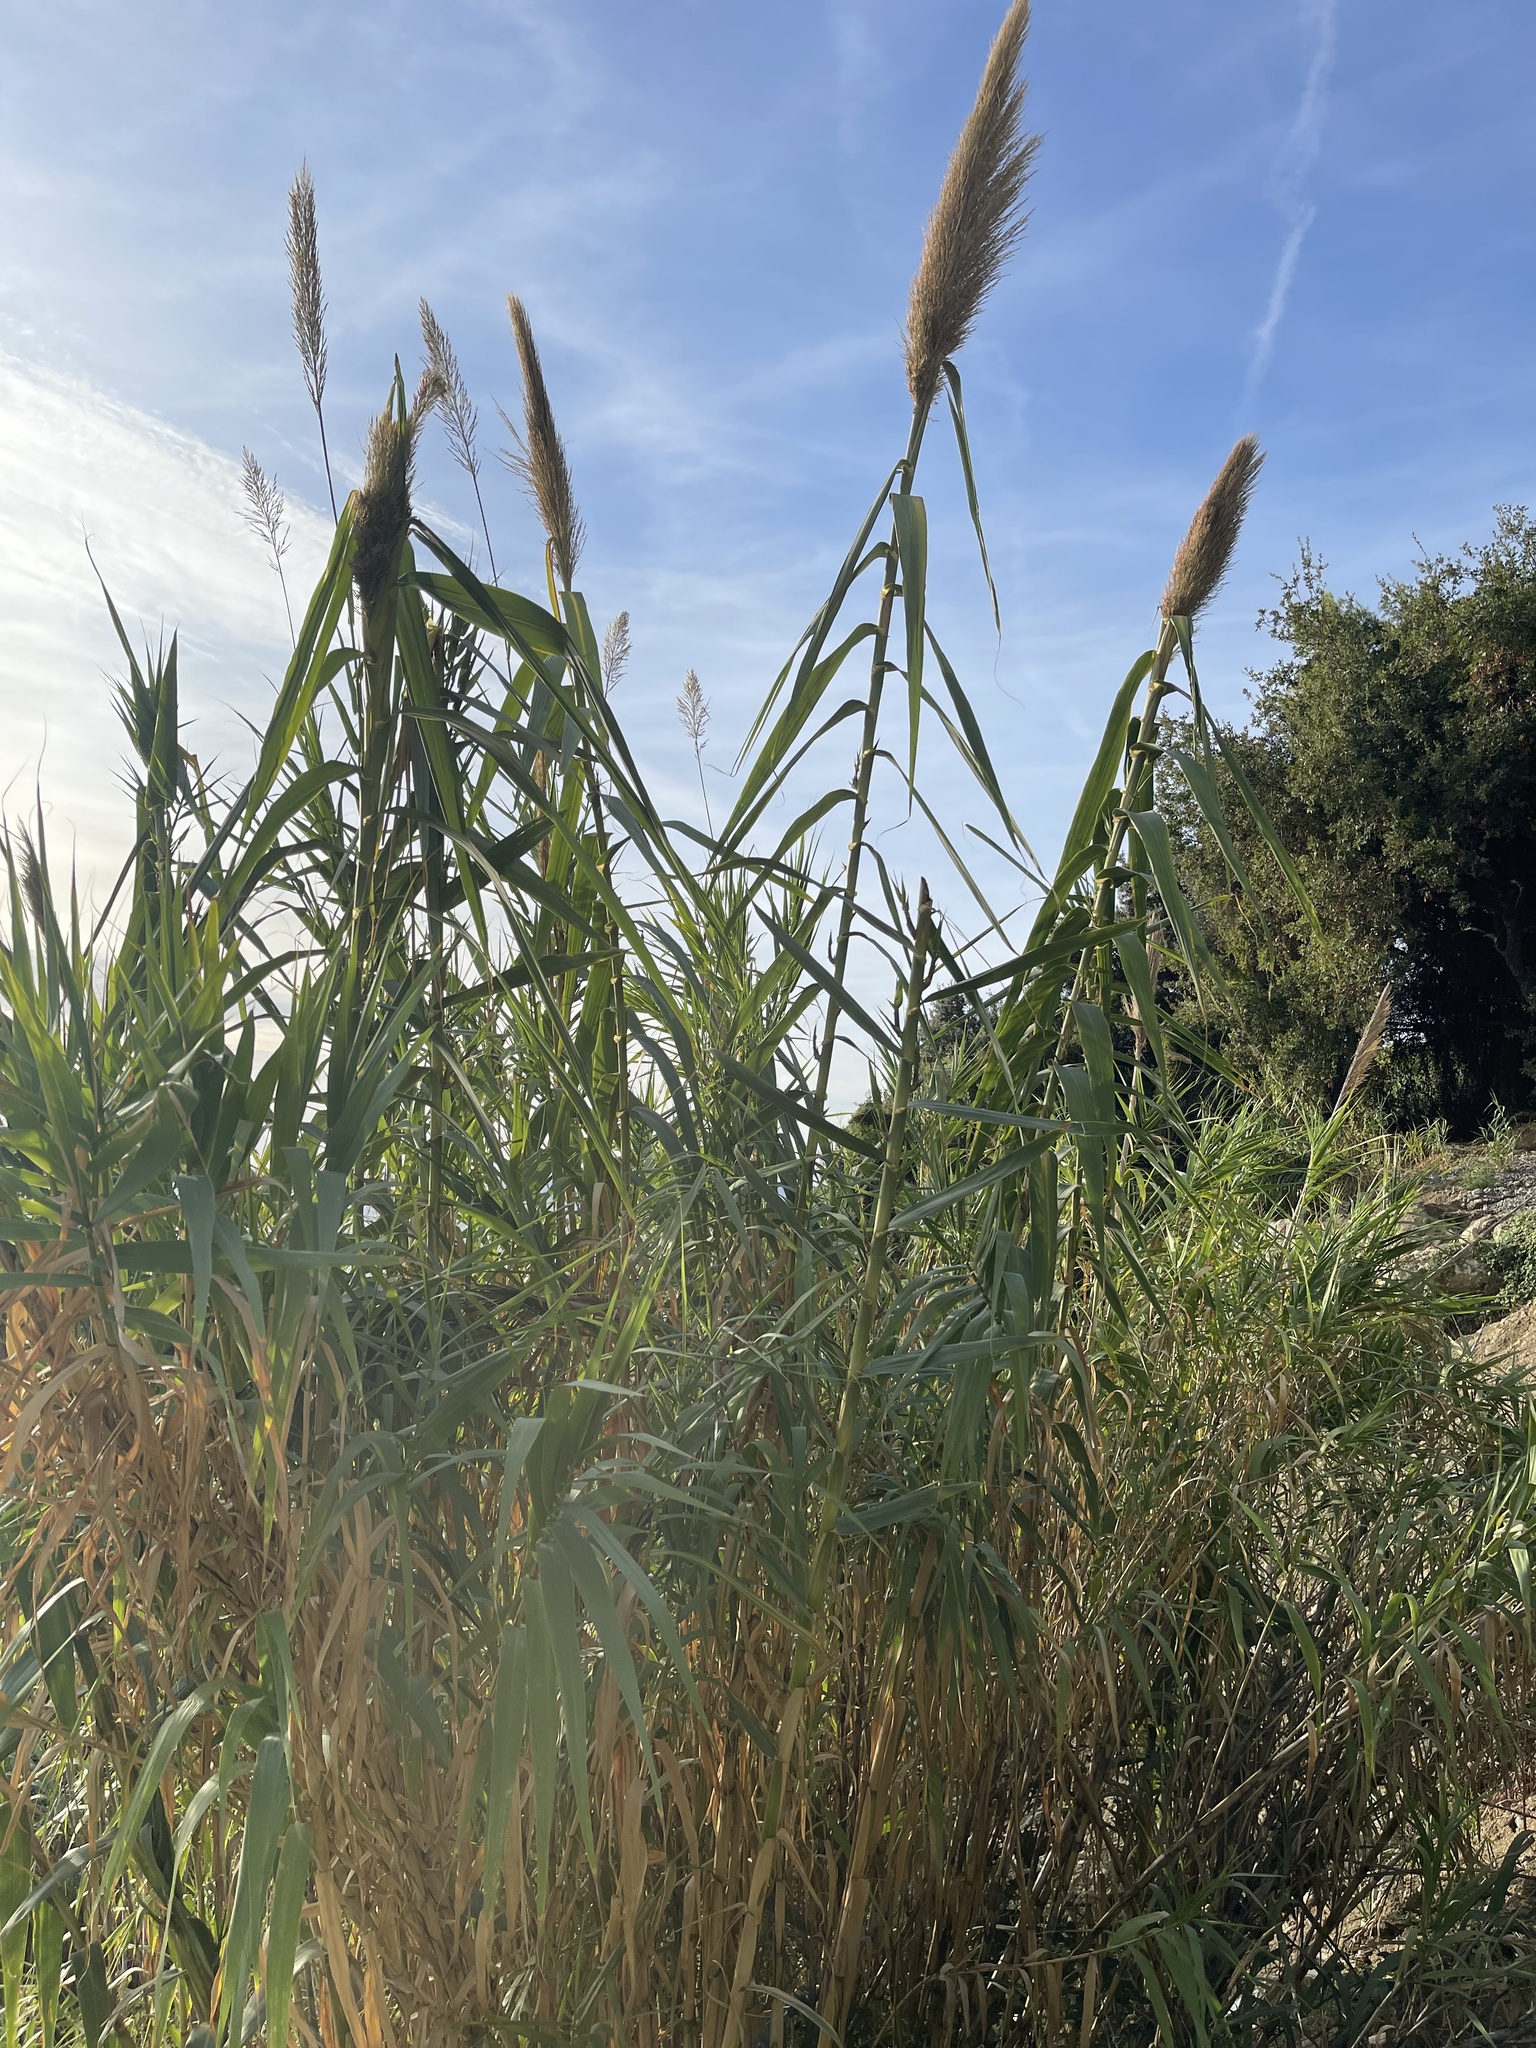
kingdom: Plantae
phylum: Tracheophyta
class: Liliopsida
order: Poales
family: Poaceae
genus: Arundo
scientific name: Arundo donax
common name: Giant reed
